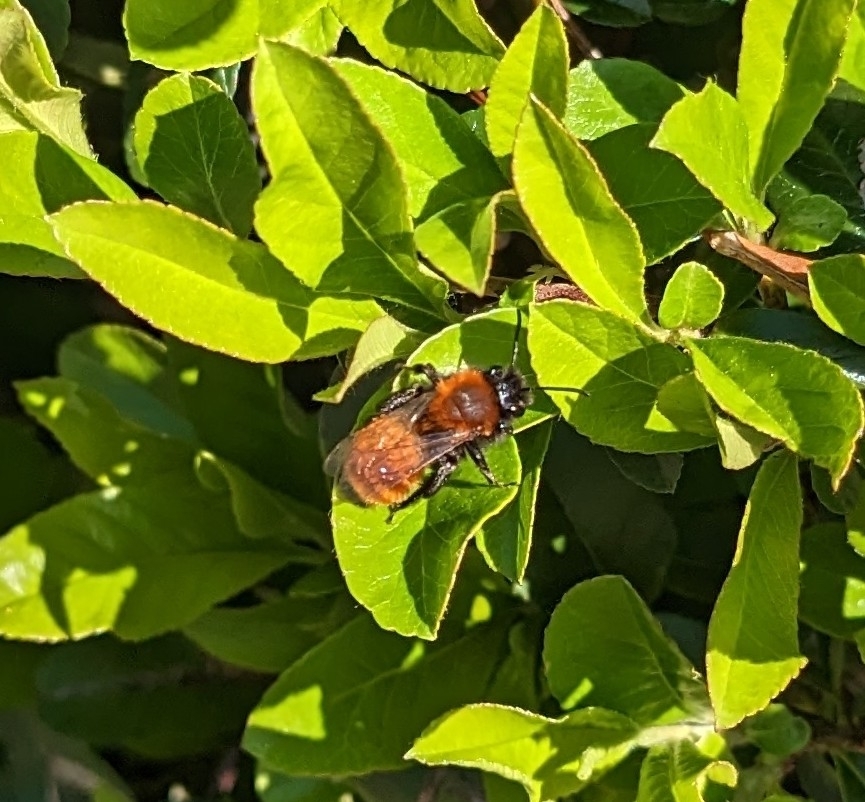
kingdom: Animalia
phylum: Arthropoda
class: Insecta
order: Hymenoptera
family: Andrenidae
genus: Andrena
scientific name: Andrena fulva
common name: Tawny mining bee
